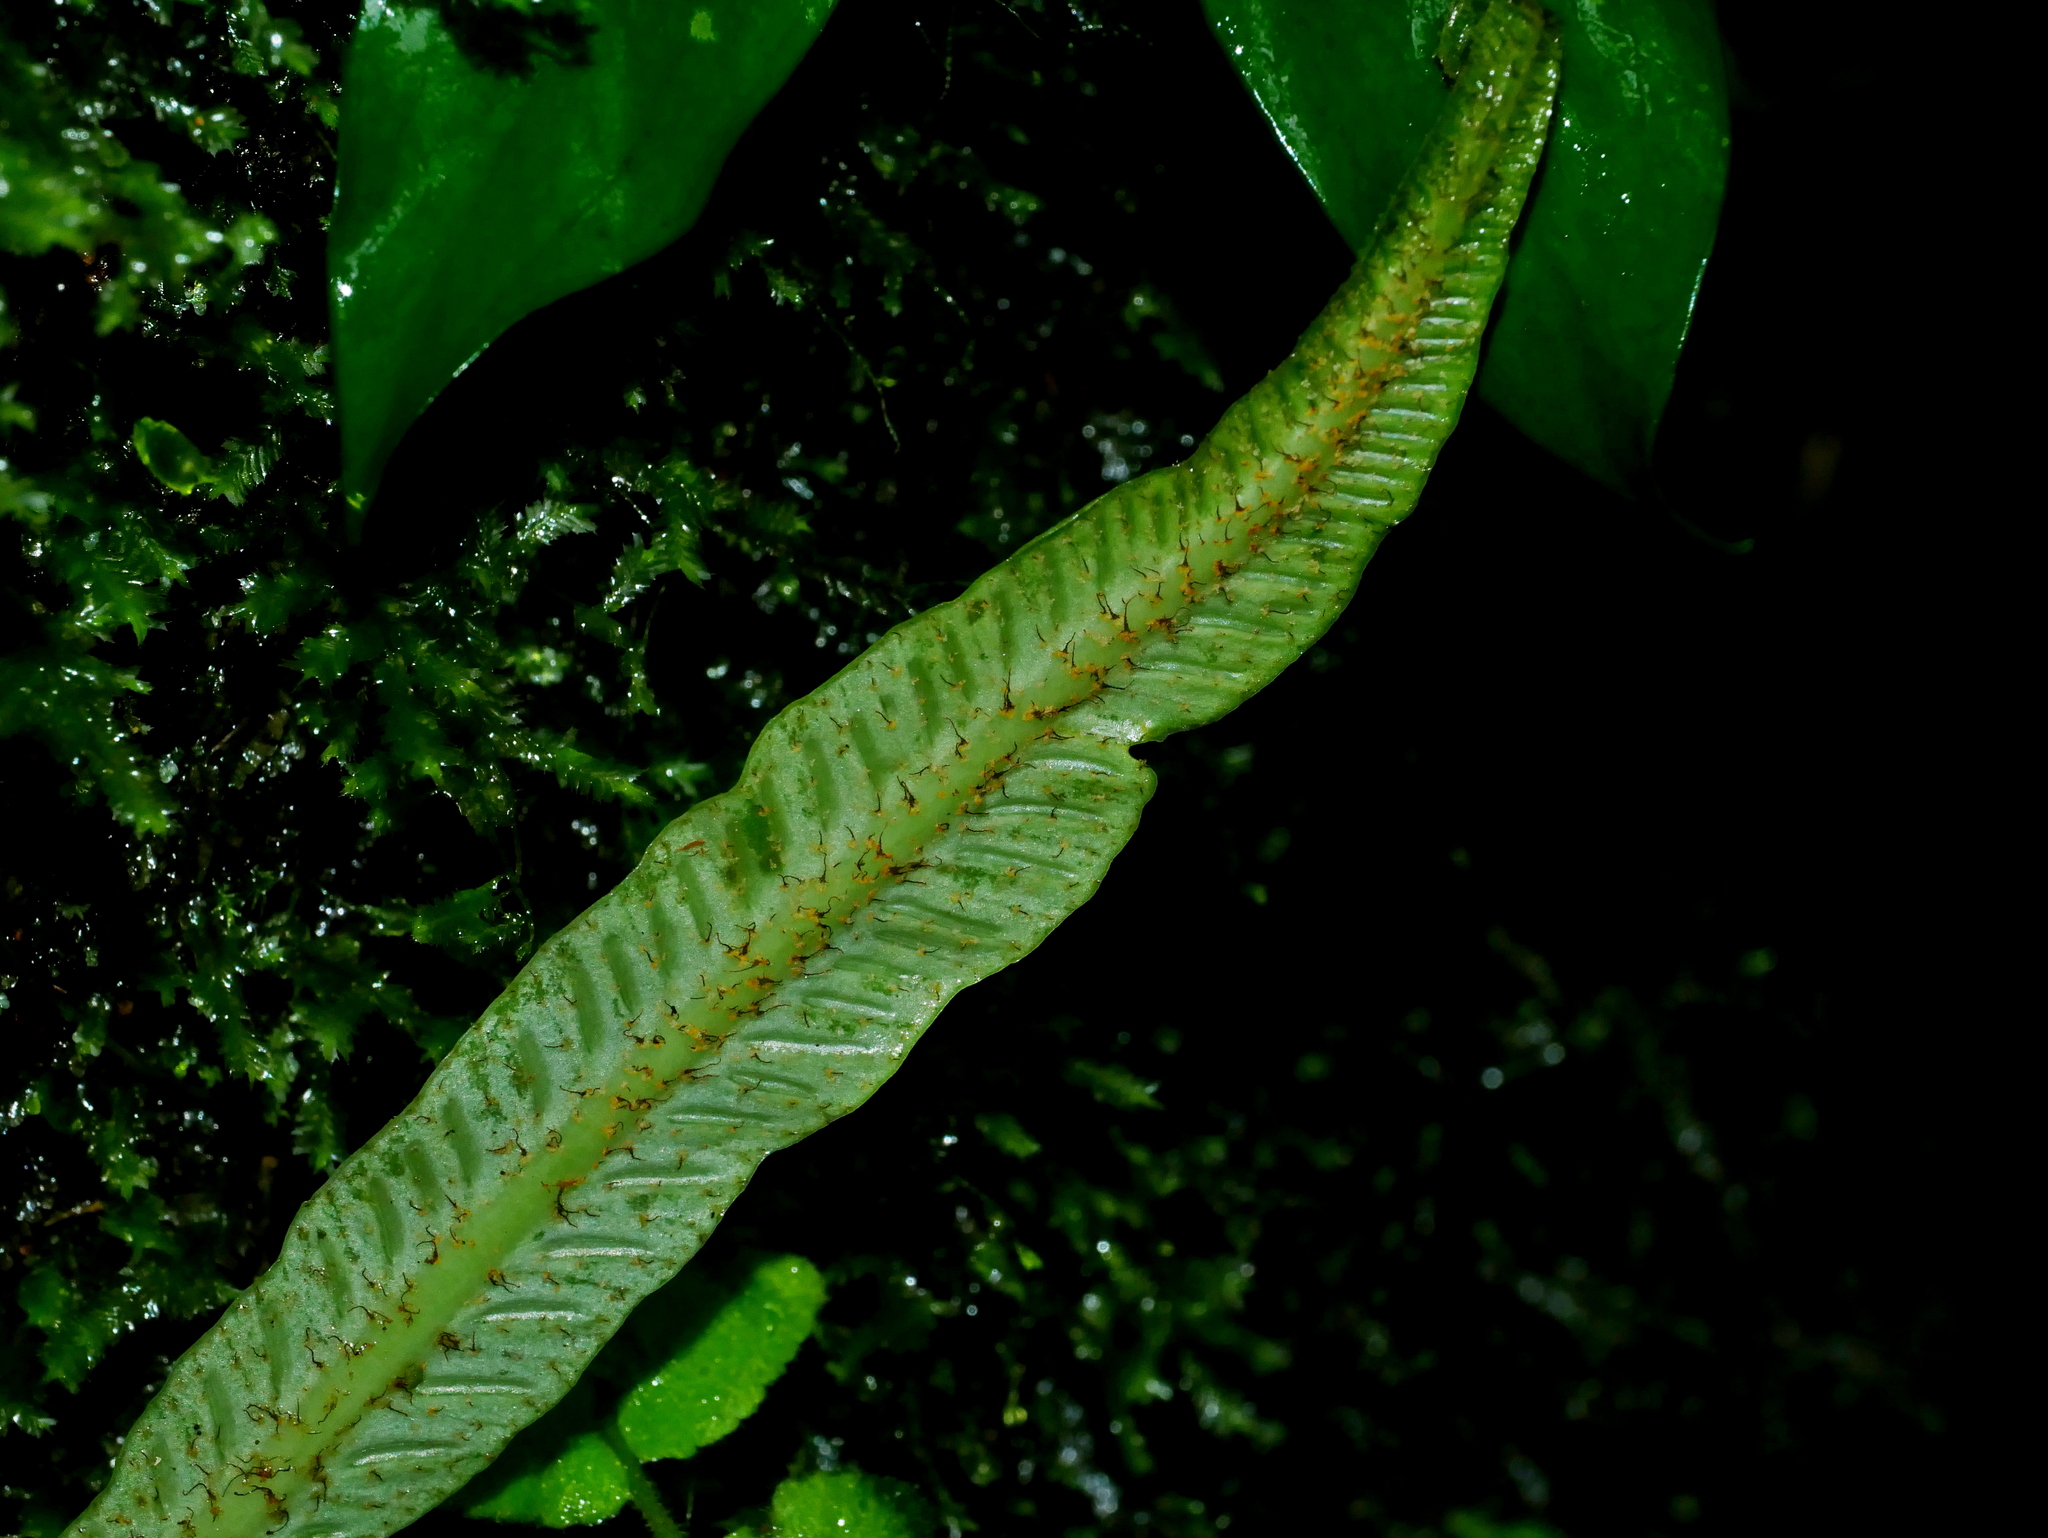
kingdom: Plantae
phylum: Tracheophyta
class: Polypodiopsida
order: Polypodiales
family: Aspleniaceae
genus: Asplenium
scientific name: Asplenium griffithianum
